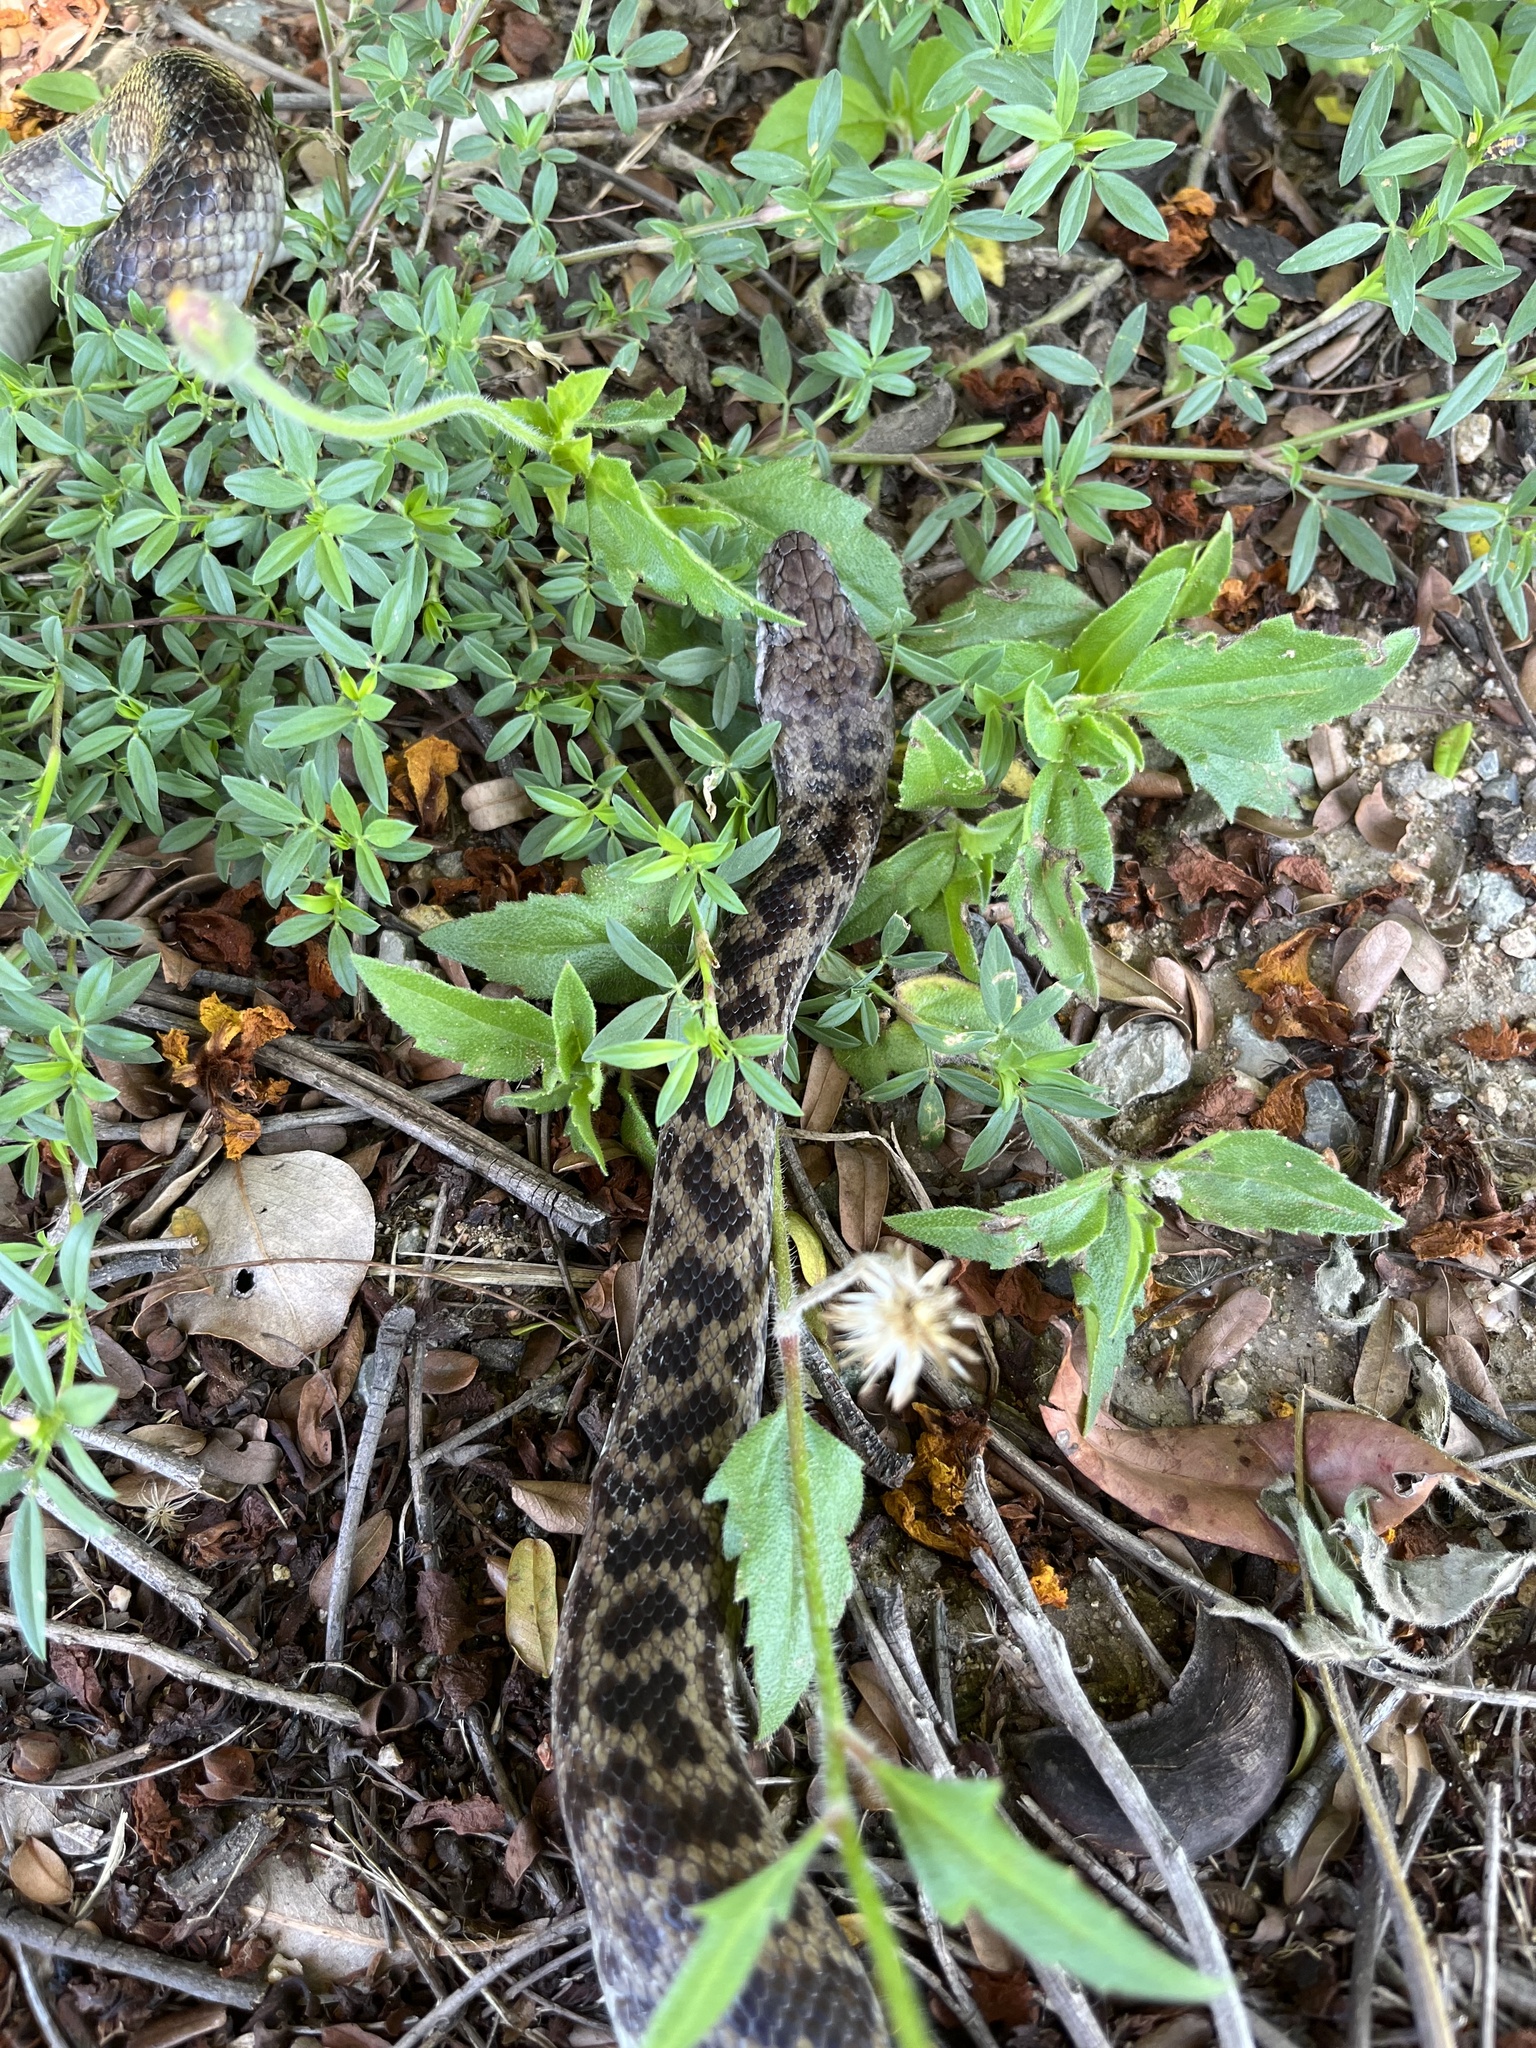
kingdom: Animalia
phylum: Chordata
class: Squamata
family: Pythonidae
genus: Antaresia
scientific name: Antaresia maculosa
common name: Eastern childrens python
